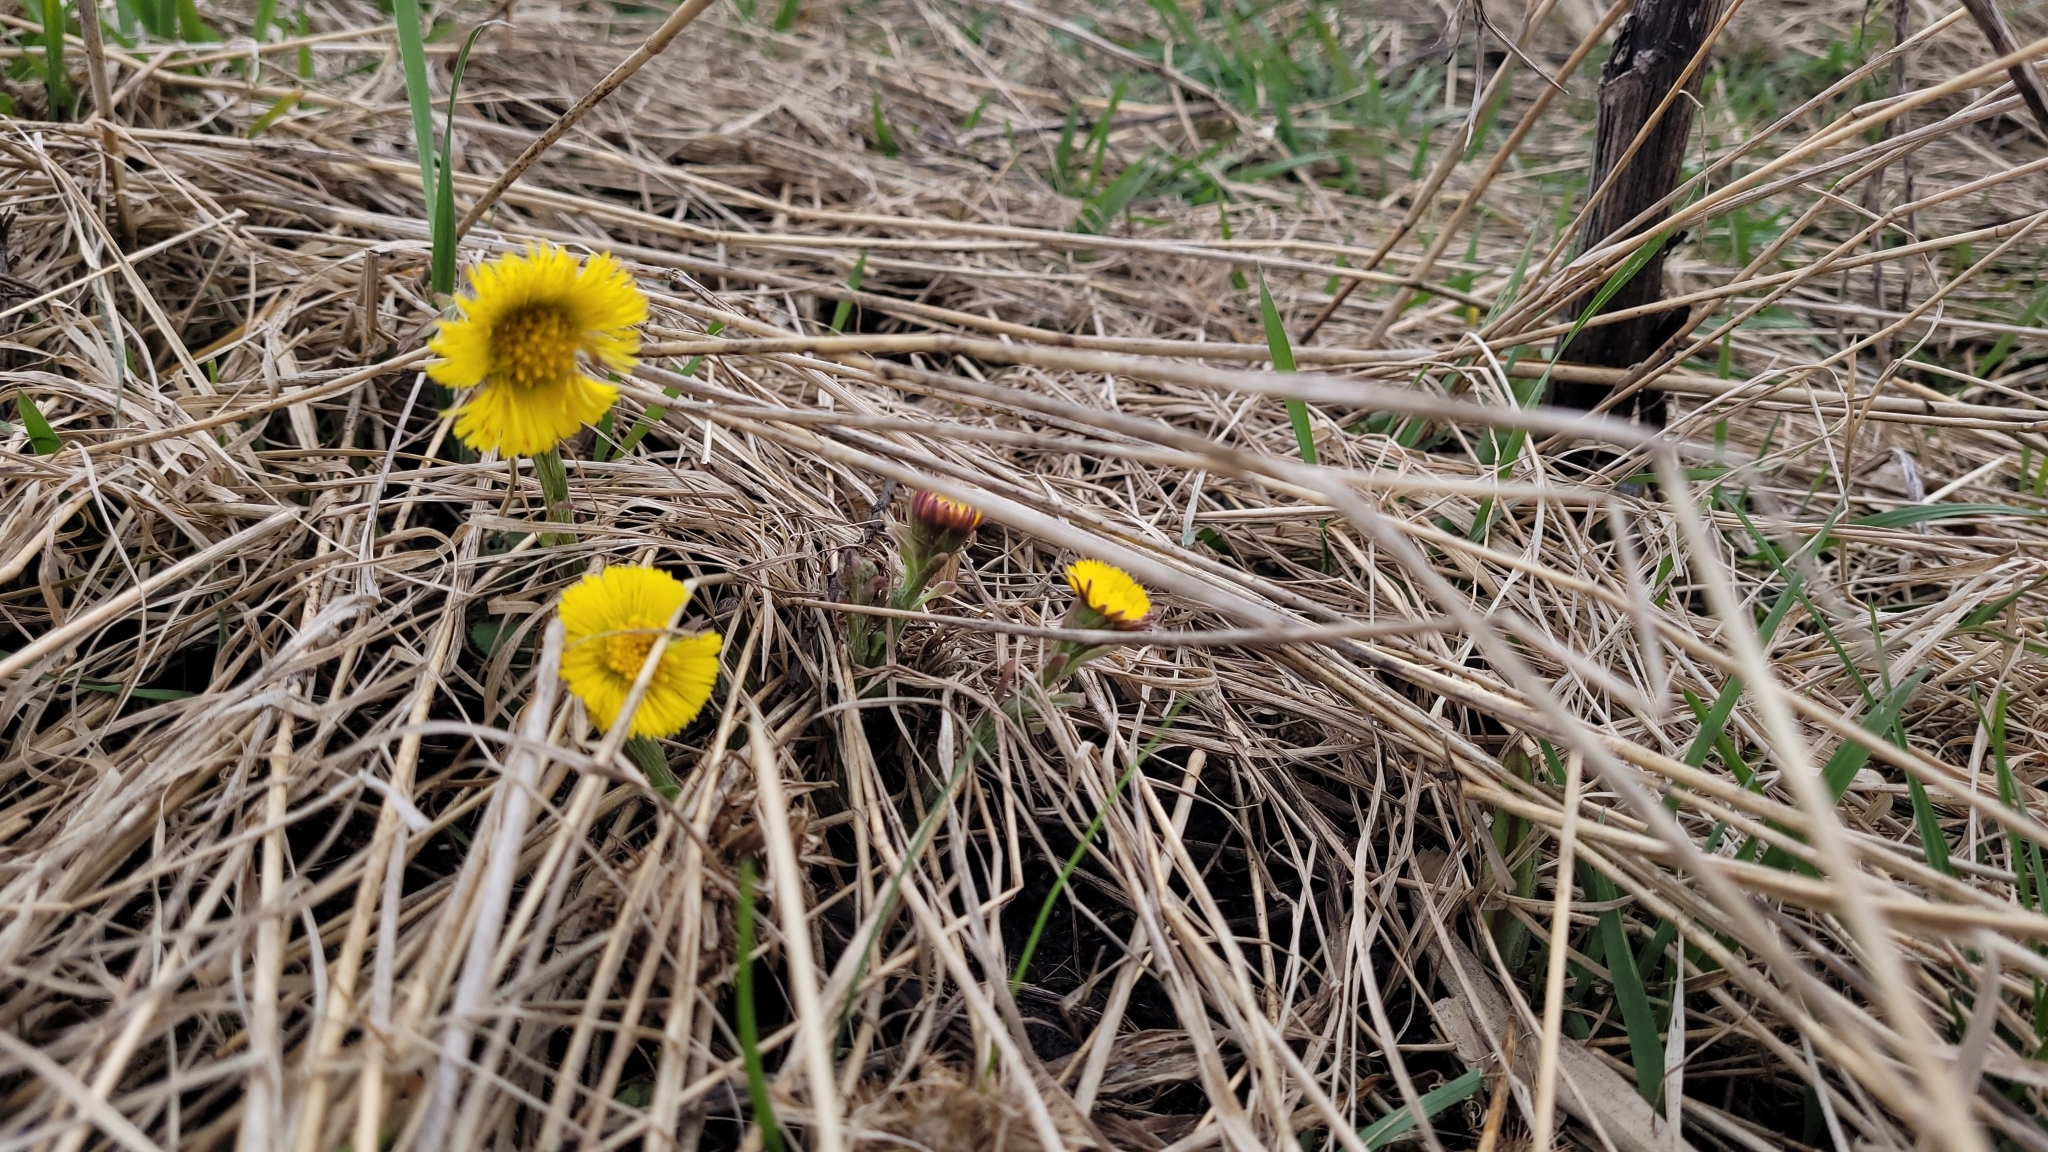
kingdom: Plantae
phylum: Tracheophyta
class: Magnoliopsida
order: Asterales
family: Asteraceae
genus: Tussilago
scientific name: Tussilago farfara
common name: Coltsfoot
